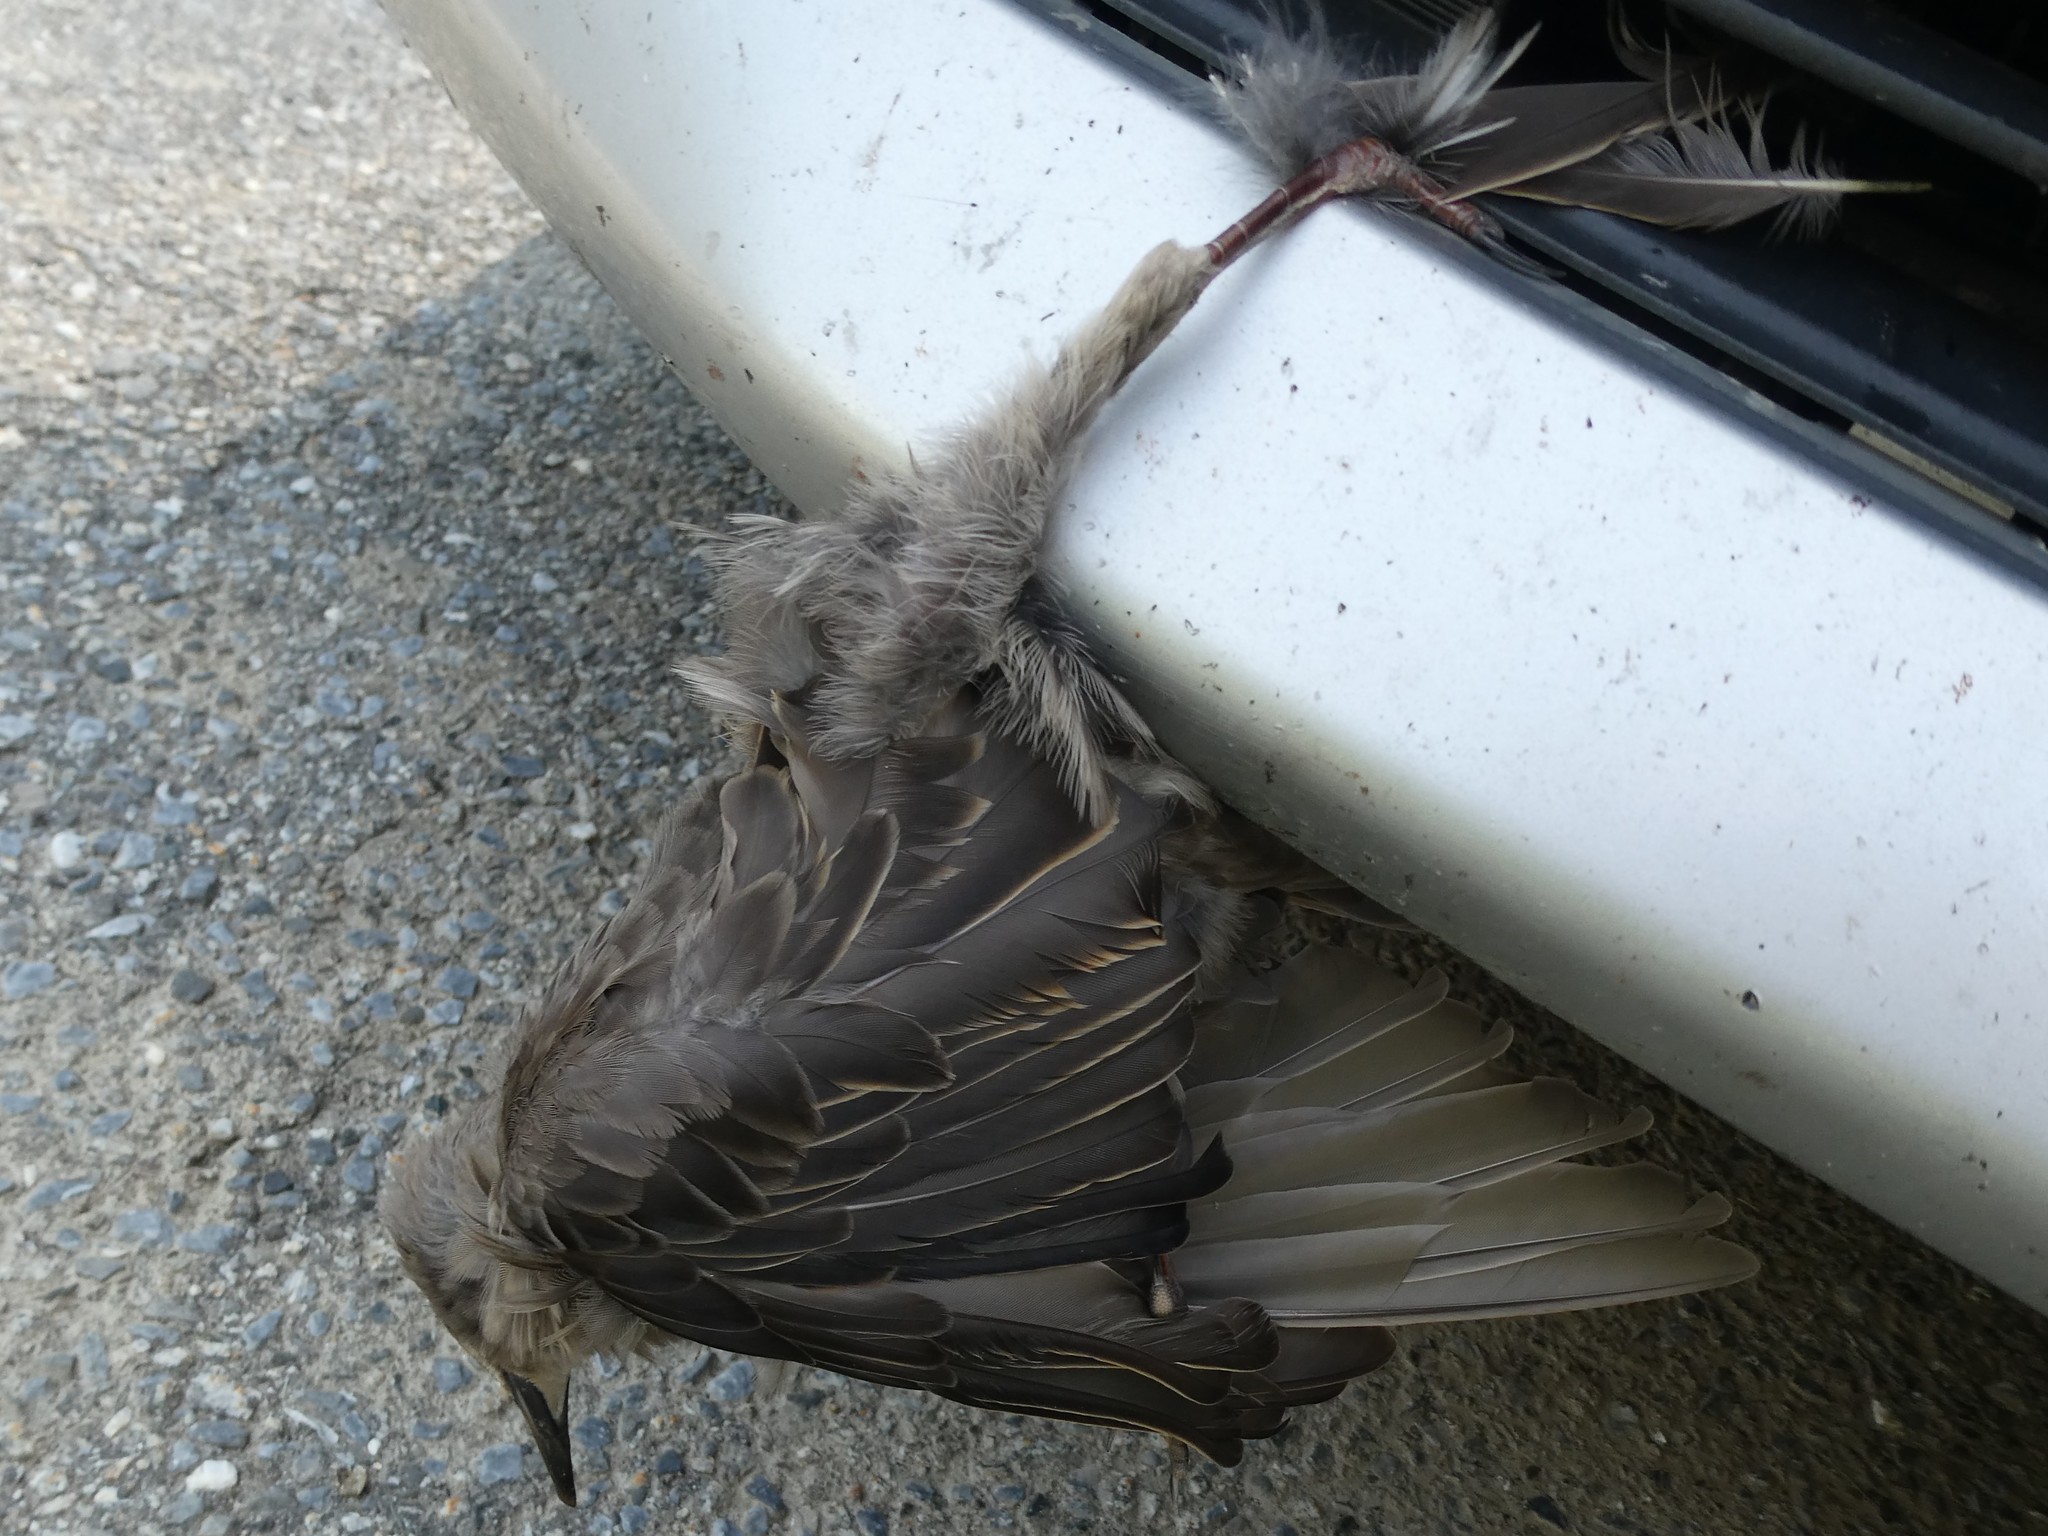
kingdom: Animalia
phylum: Chordata
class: Aves
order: Passeriformes
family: Sturnidae
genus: Sturnus
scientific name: Sturnus vulgaris
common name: Common starling
